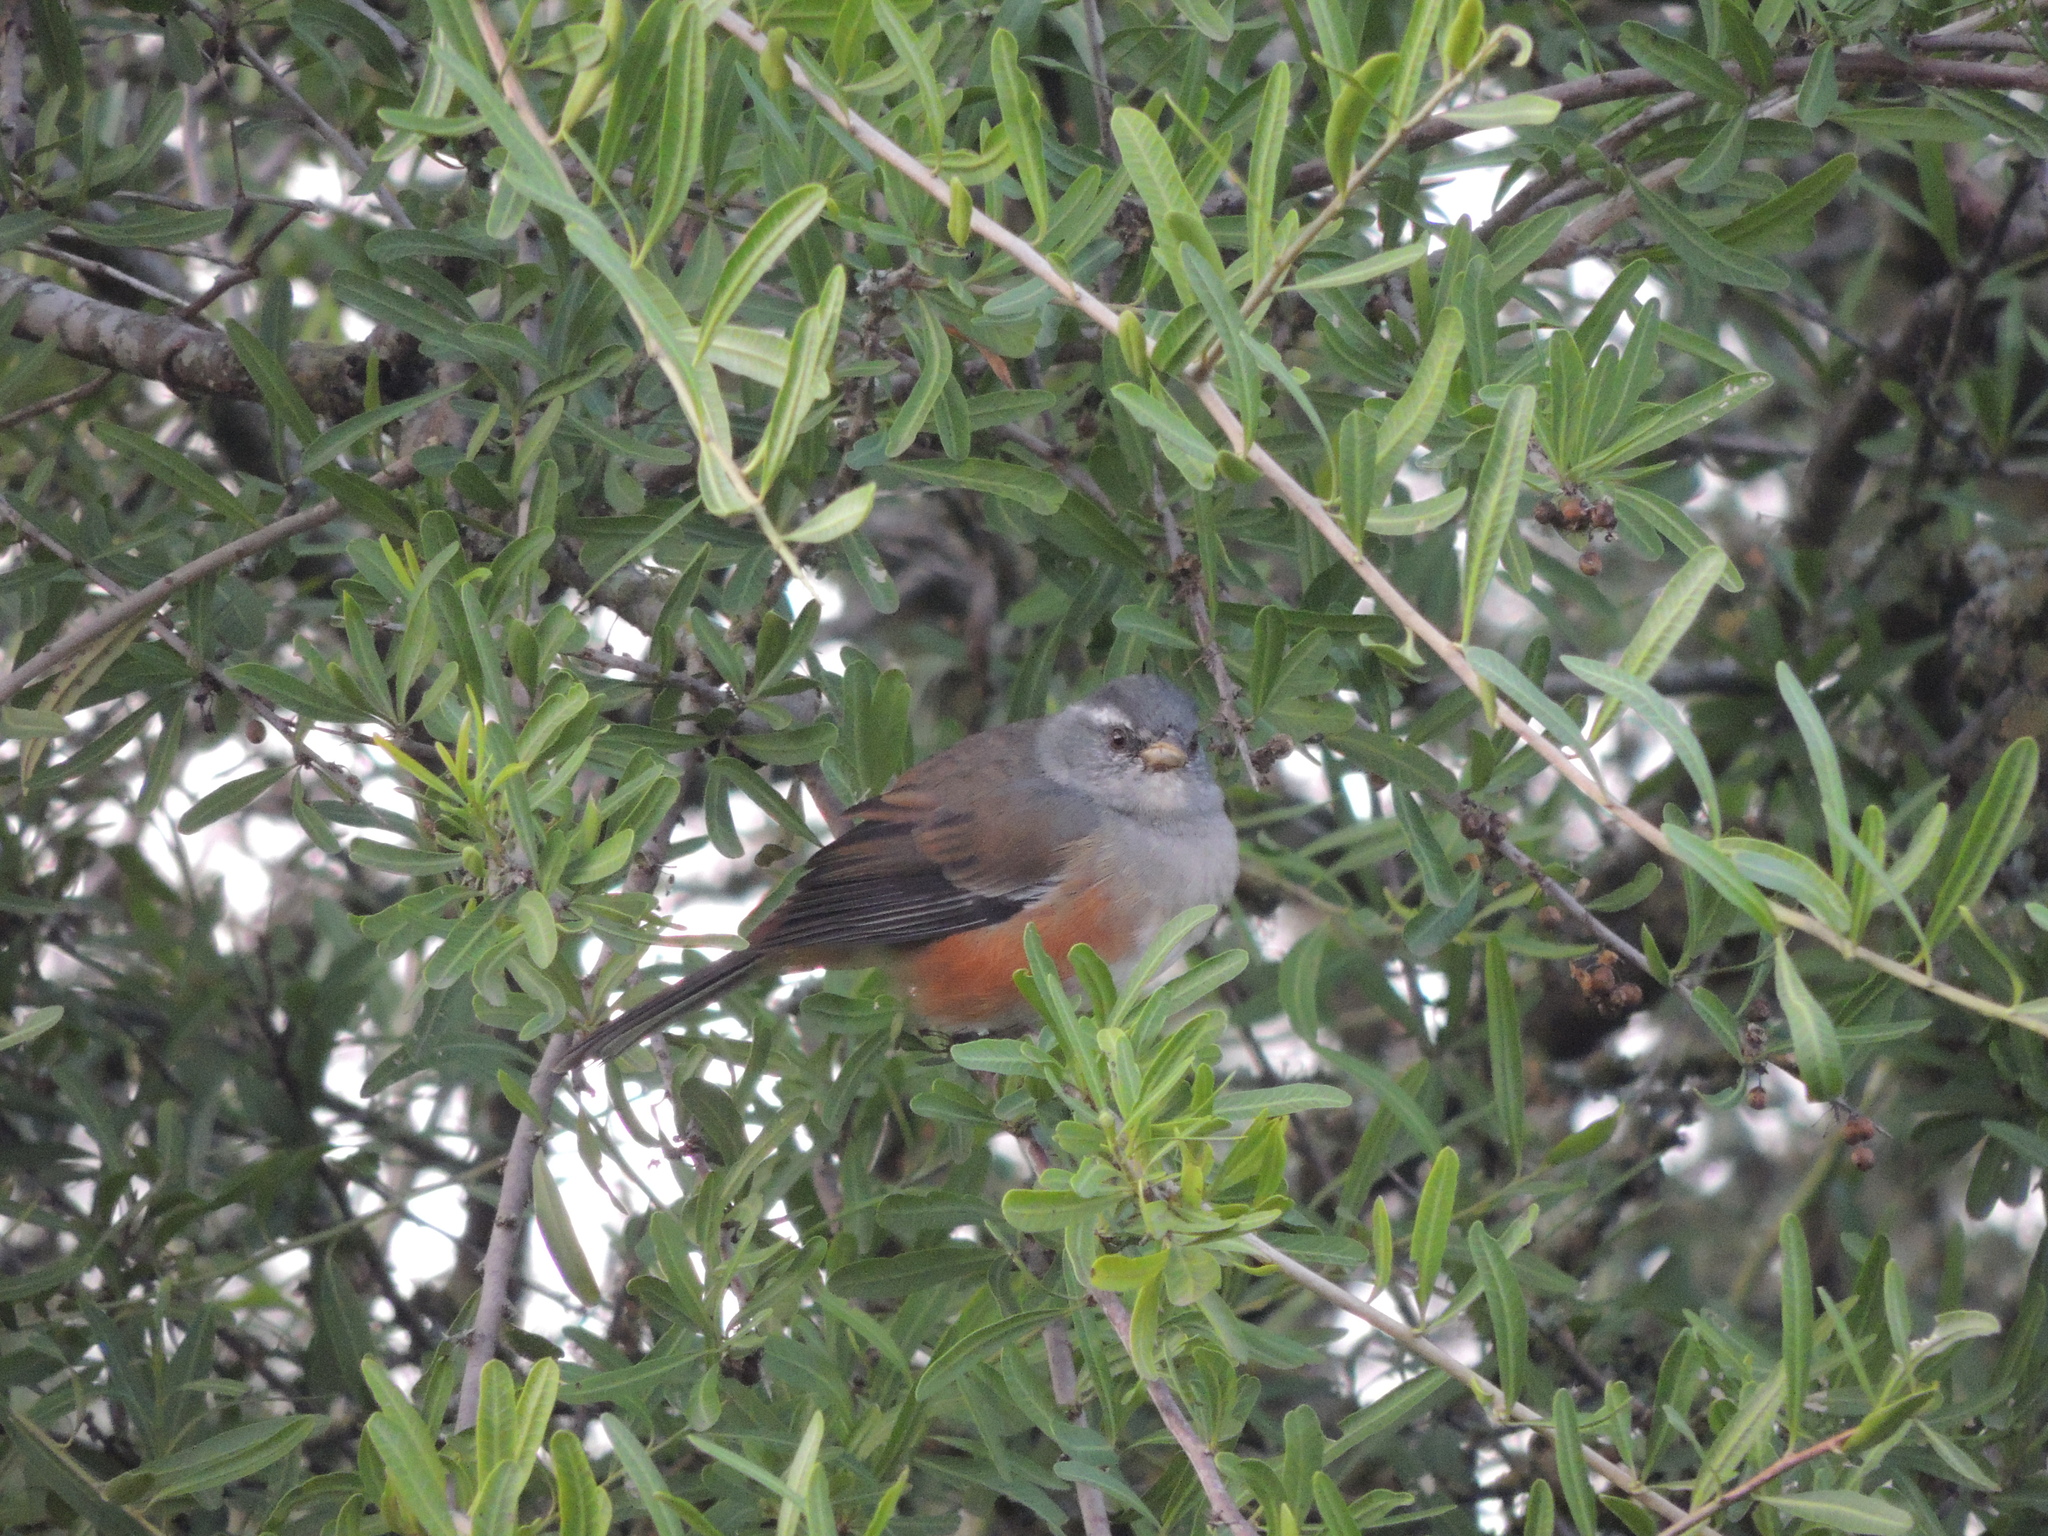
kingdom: Animalia
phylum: Chordata
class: Aves
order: Passeriformes
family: Thraupidae
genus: Microspingus
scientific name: Microspingus cabanisi
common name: Gray-throated warbling-finch
